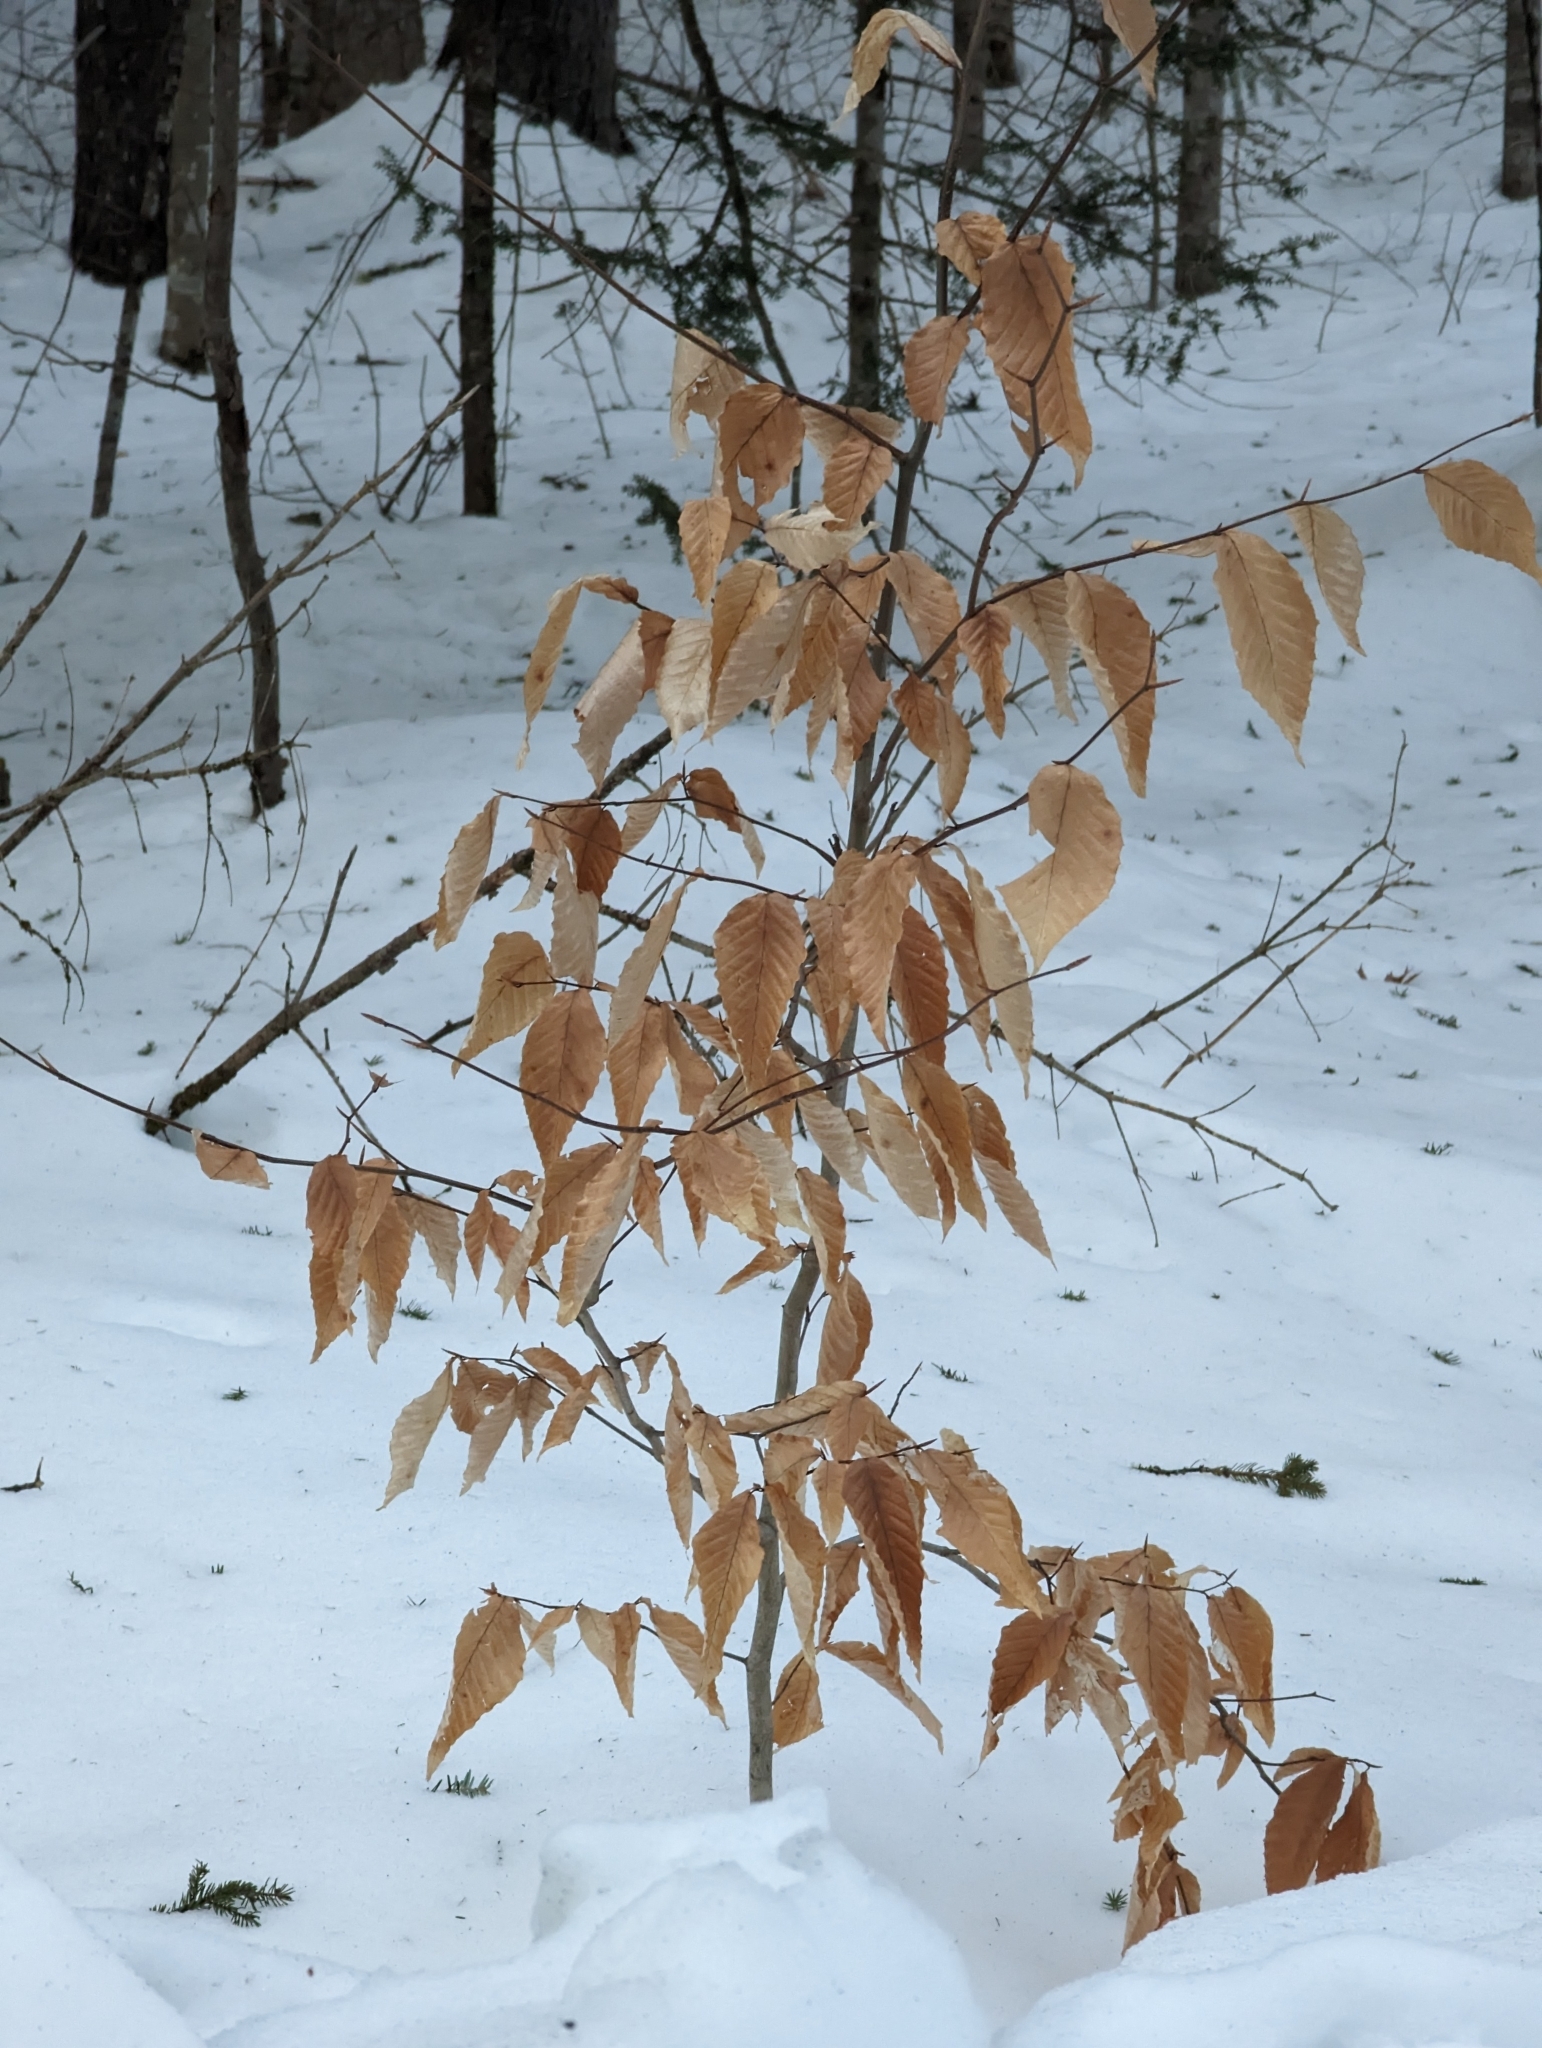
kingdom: Plantae
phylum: Tracheophyta
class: Magnoliopsida
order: Fagales
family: Fagaceae
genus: Fagus
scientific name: Fagus grandifolia
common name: American beech
